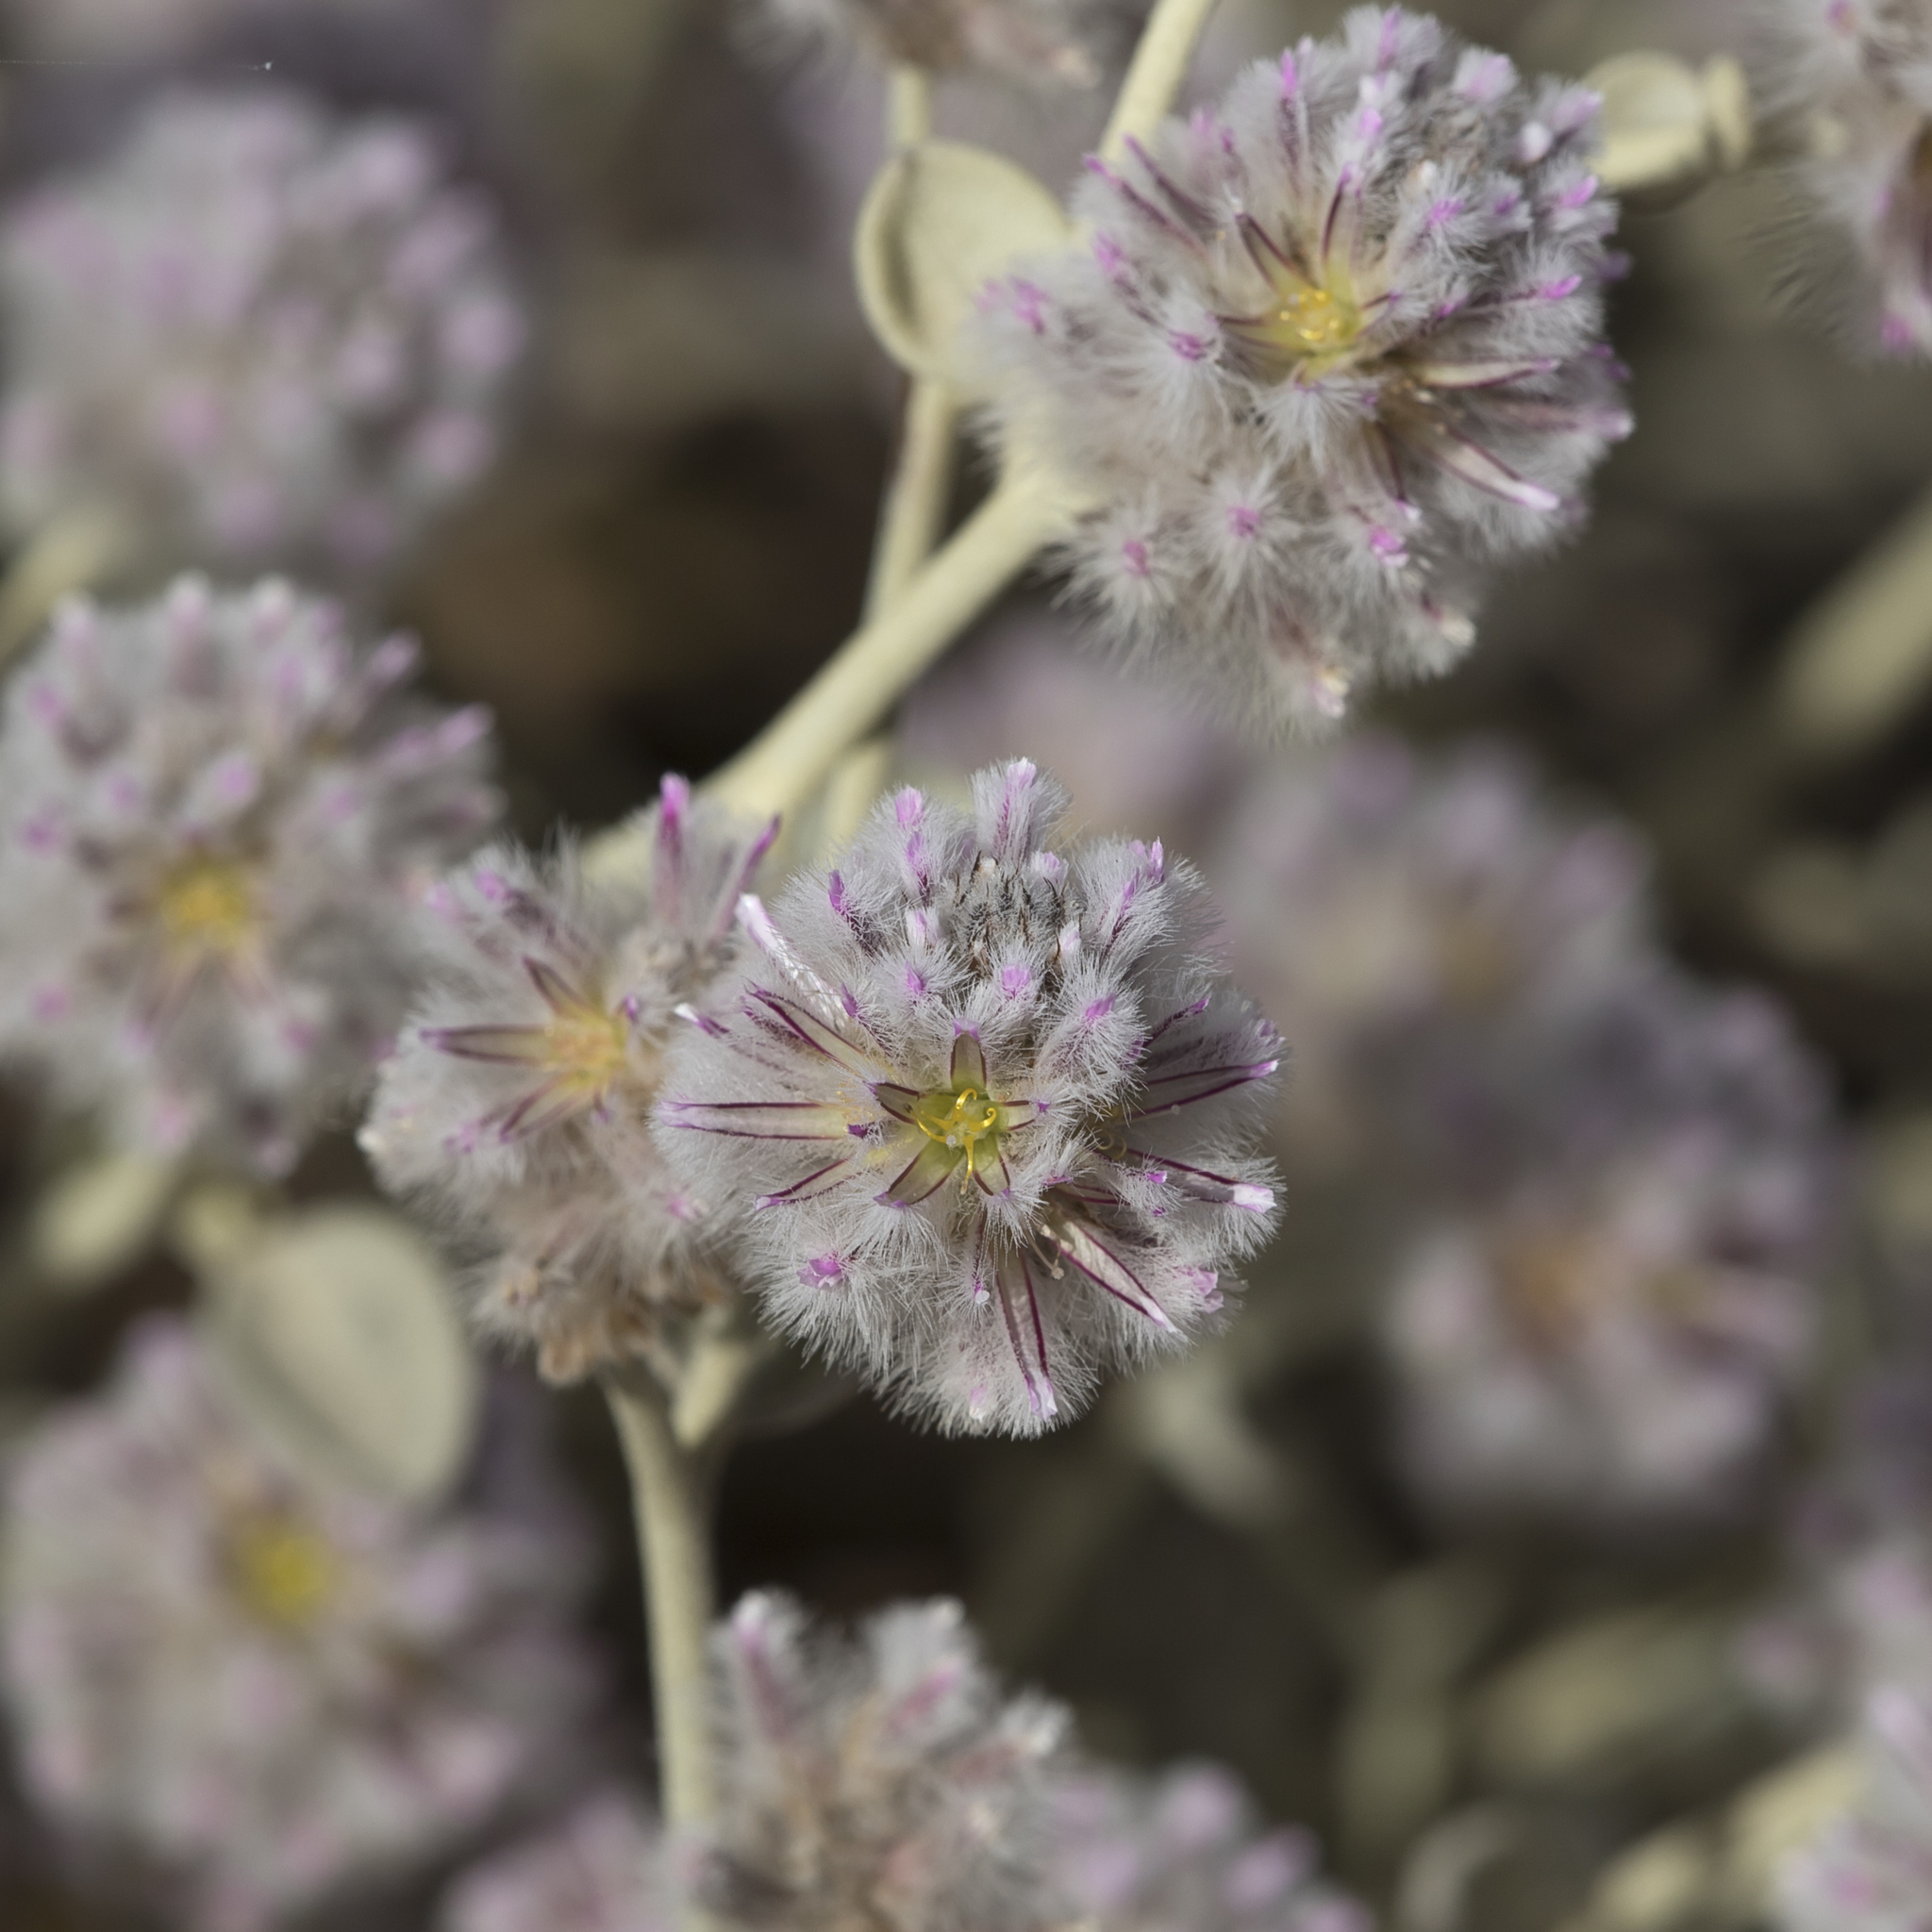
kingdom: Plantae
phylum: Tracheophyta
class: Magnoliopsida
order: Caryophyllales
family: Amaranthaceae
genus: Ptilotus
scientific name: Ptilotus obovatus
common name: Cottonbush
